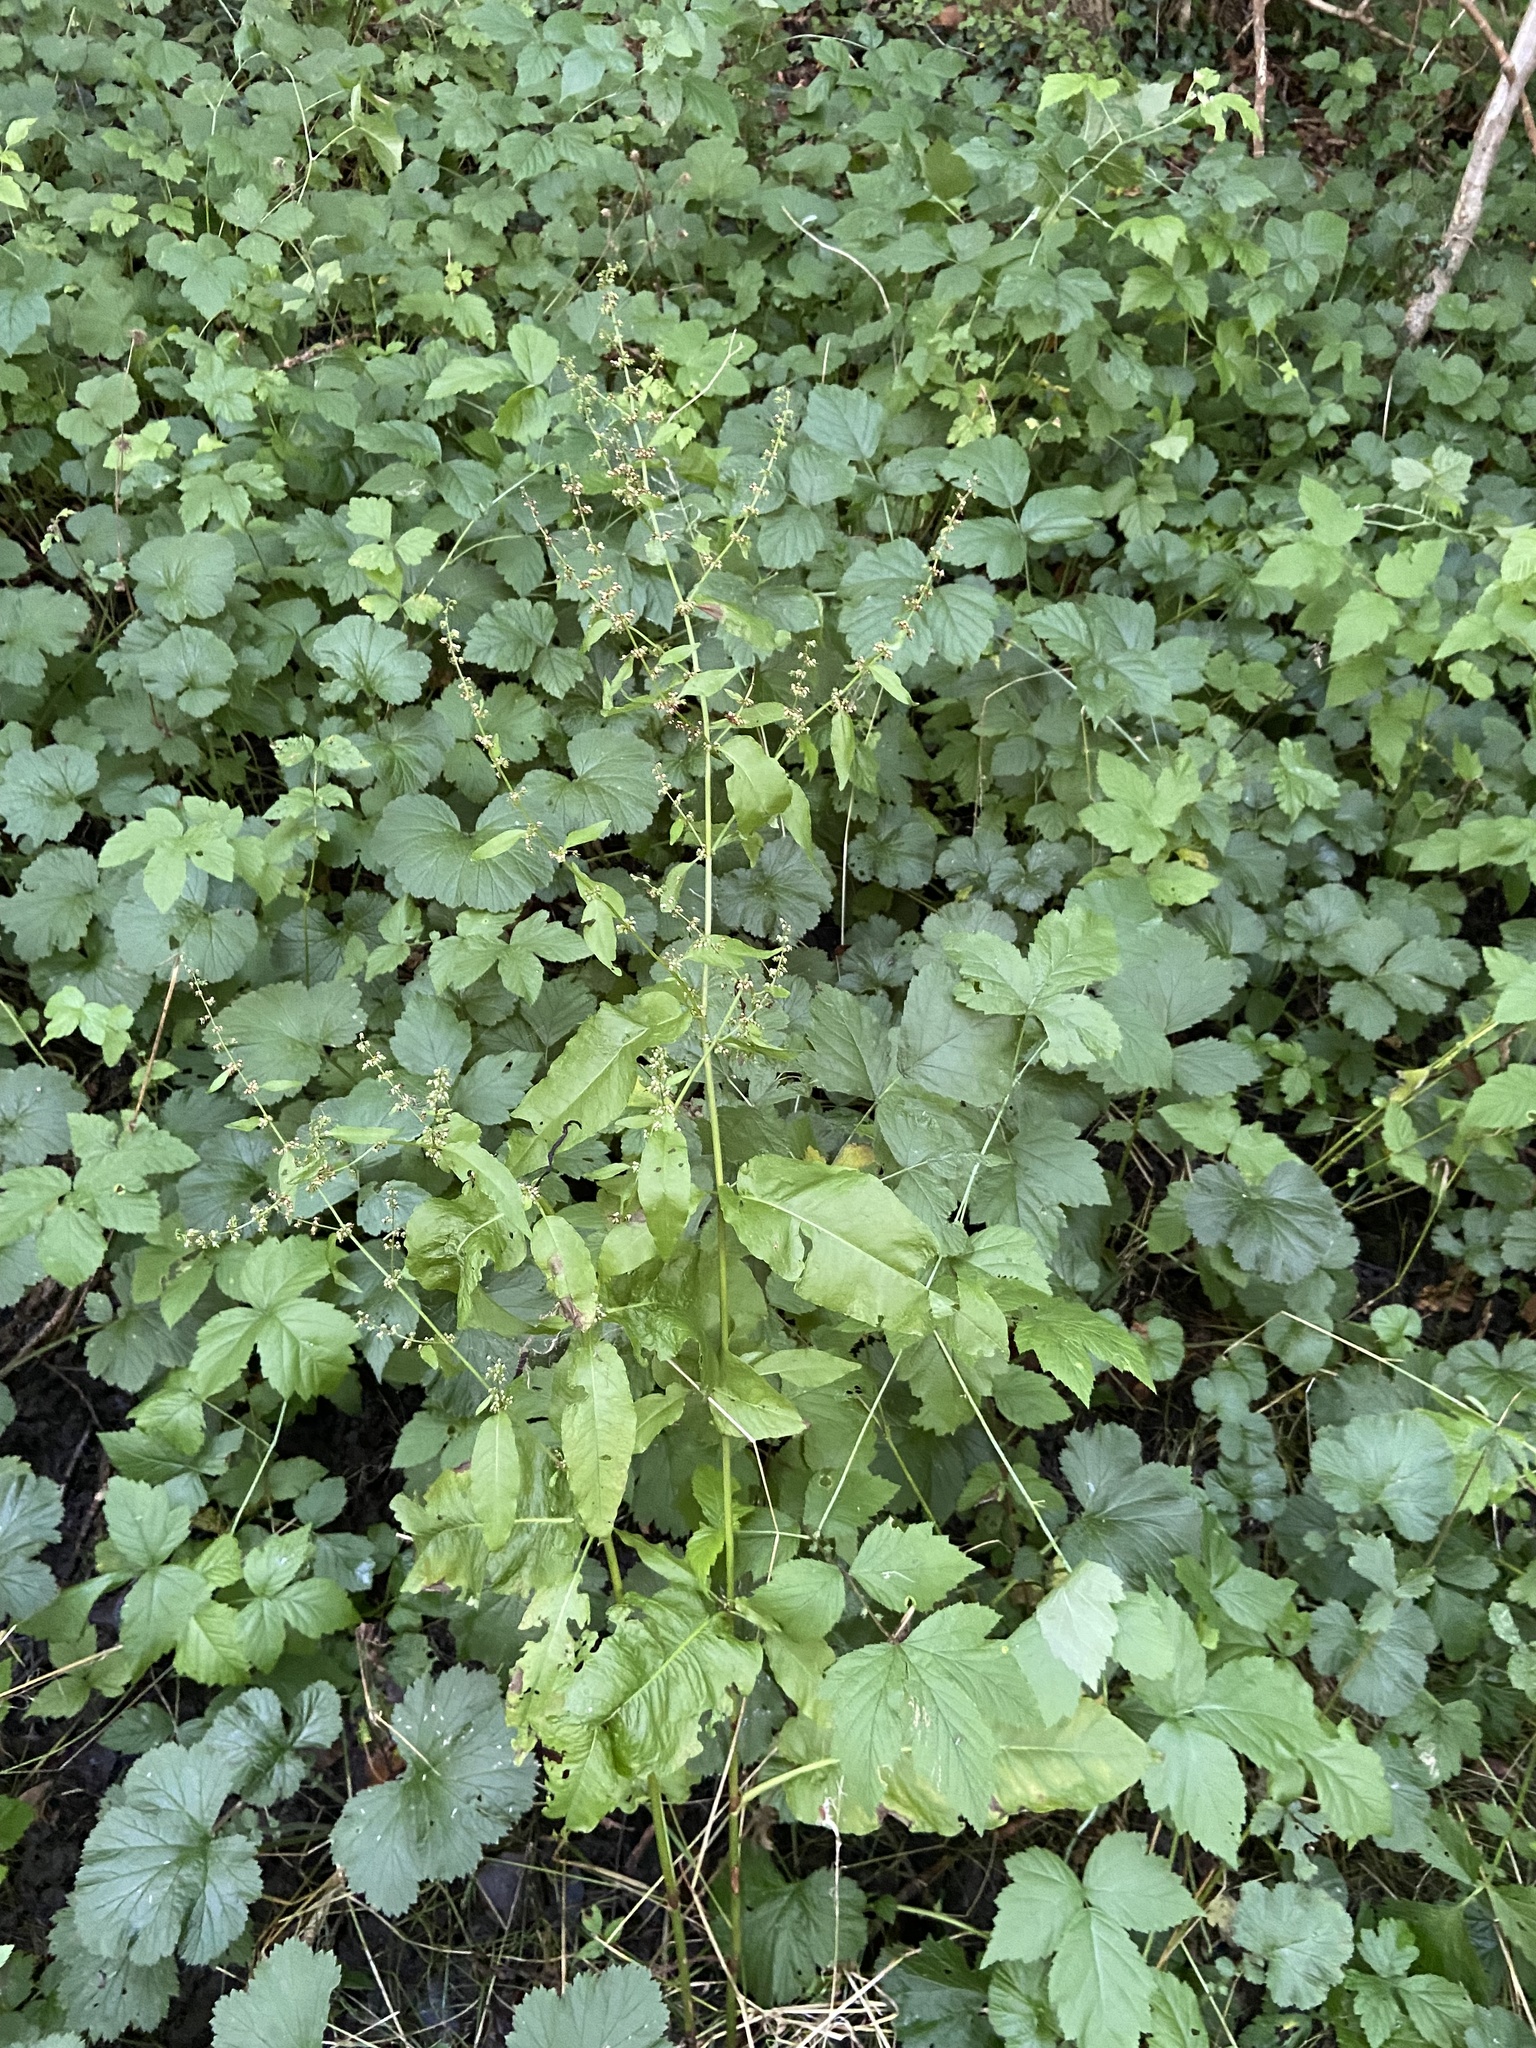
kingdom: Plantae
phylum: Tracheophyta
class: Magnoliopsida
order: Caryophyllales
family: Polygonaceae
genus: Rumex
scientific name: Rumex sanguineus
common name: Wood dock
